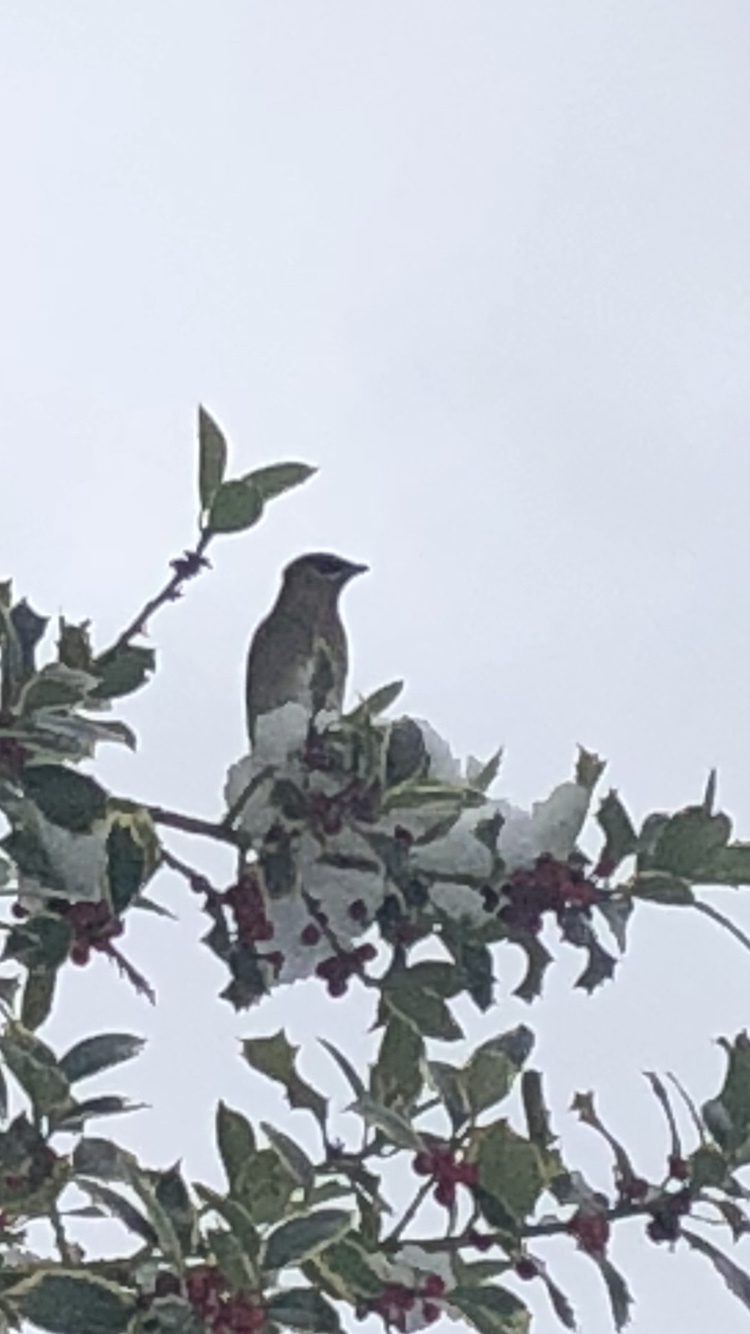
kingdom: Animalia
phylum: Chordata
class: Aves
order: Passeriformes
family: Bombycillidae
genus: Bombycilla
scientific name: Bombycilla cedrorum
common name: Cedar waxwing
